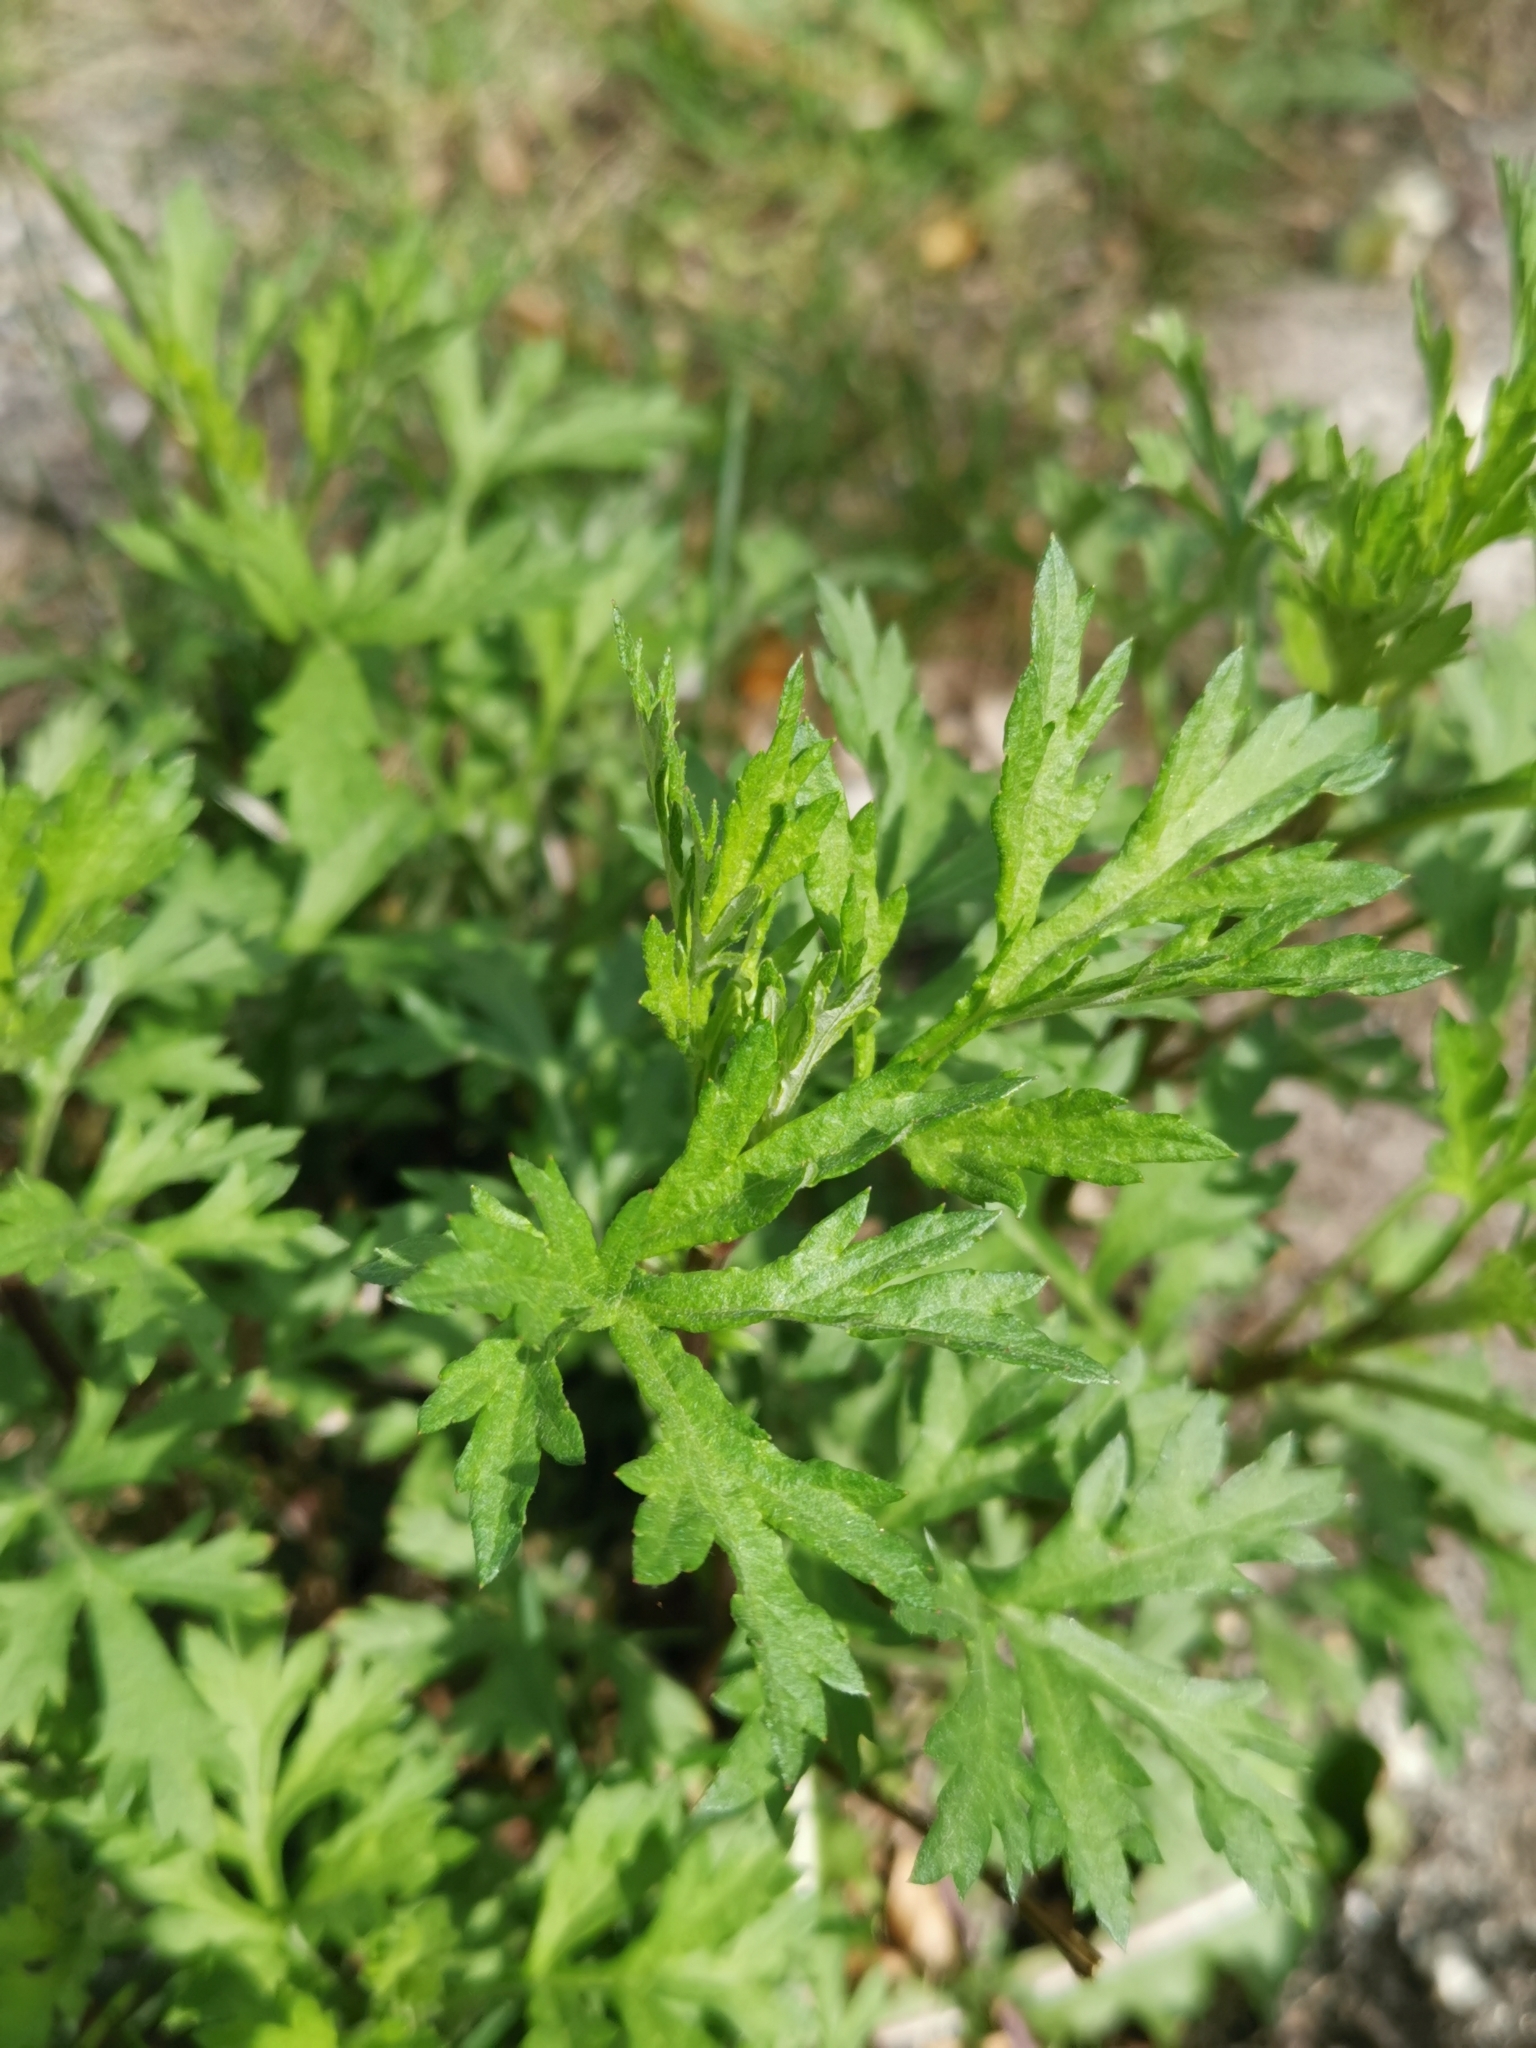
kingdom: Plantae
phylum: Tracheophyta
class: Magnoliopsida
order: Asterales
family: Asteraceae
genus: Artemisia
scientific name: Artemisia vulgaris
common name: Mugwort
